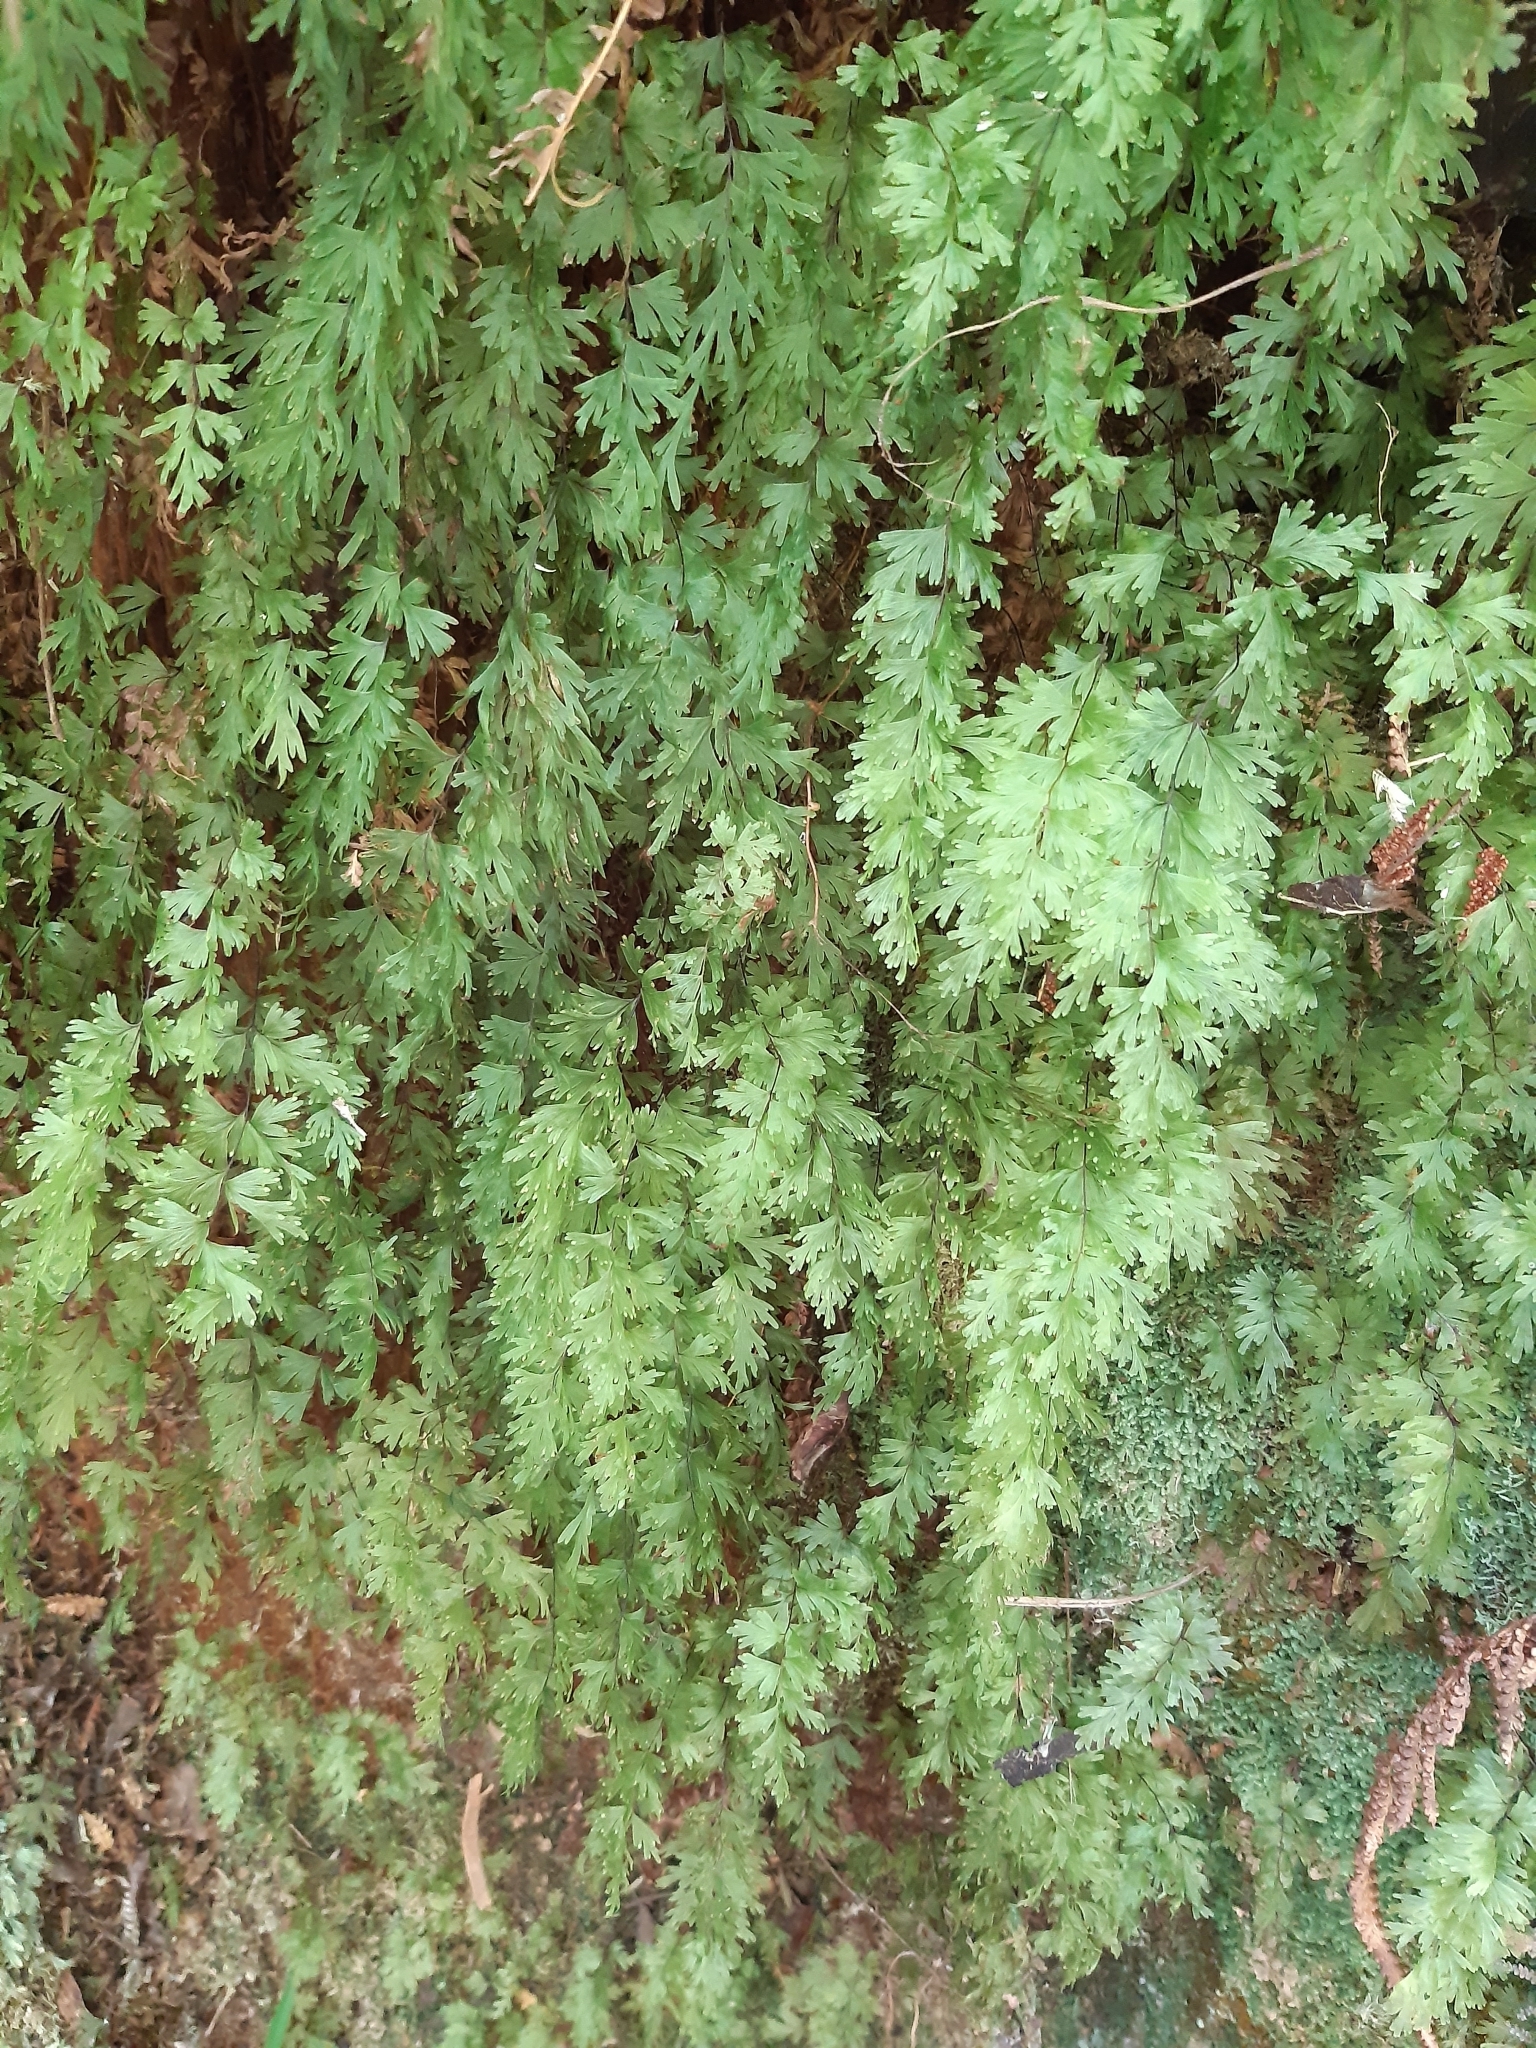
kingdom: Plantae
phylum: Tracheophyta
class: Polypodiopsida
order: Hymenophyllales
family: Hymenophyllaceae
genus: Hymenophyllum
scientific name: Hymenophyllum flabellatum
